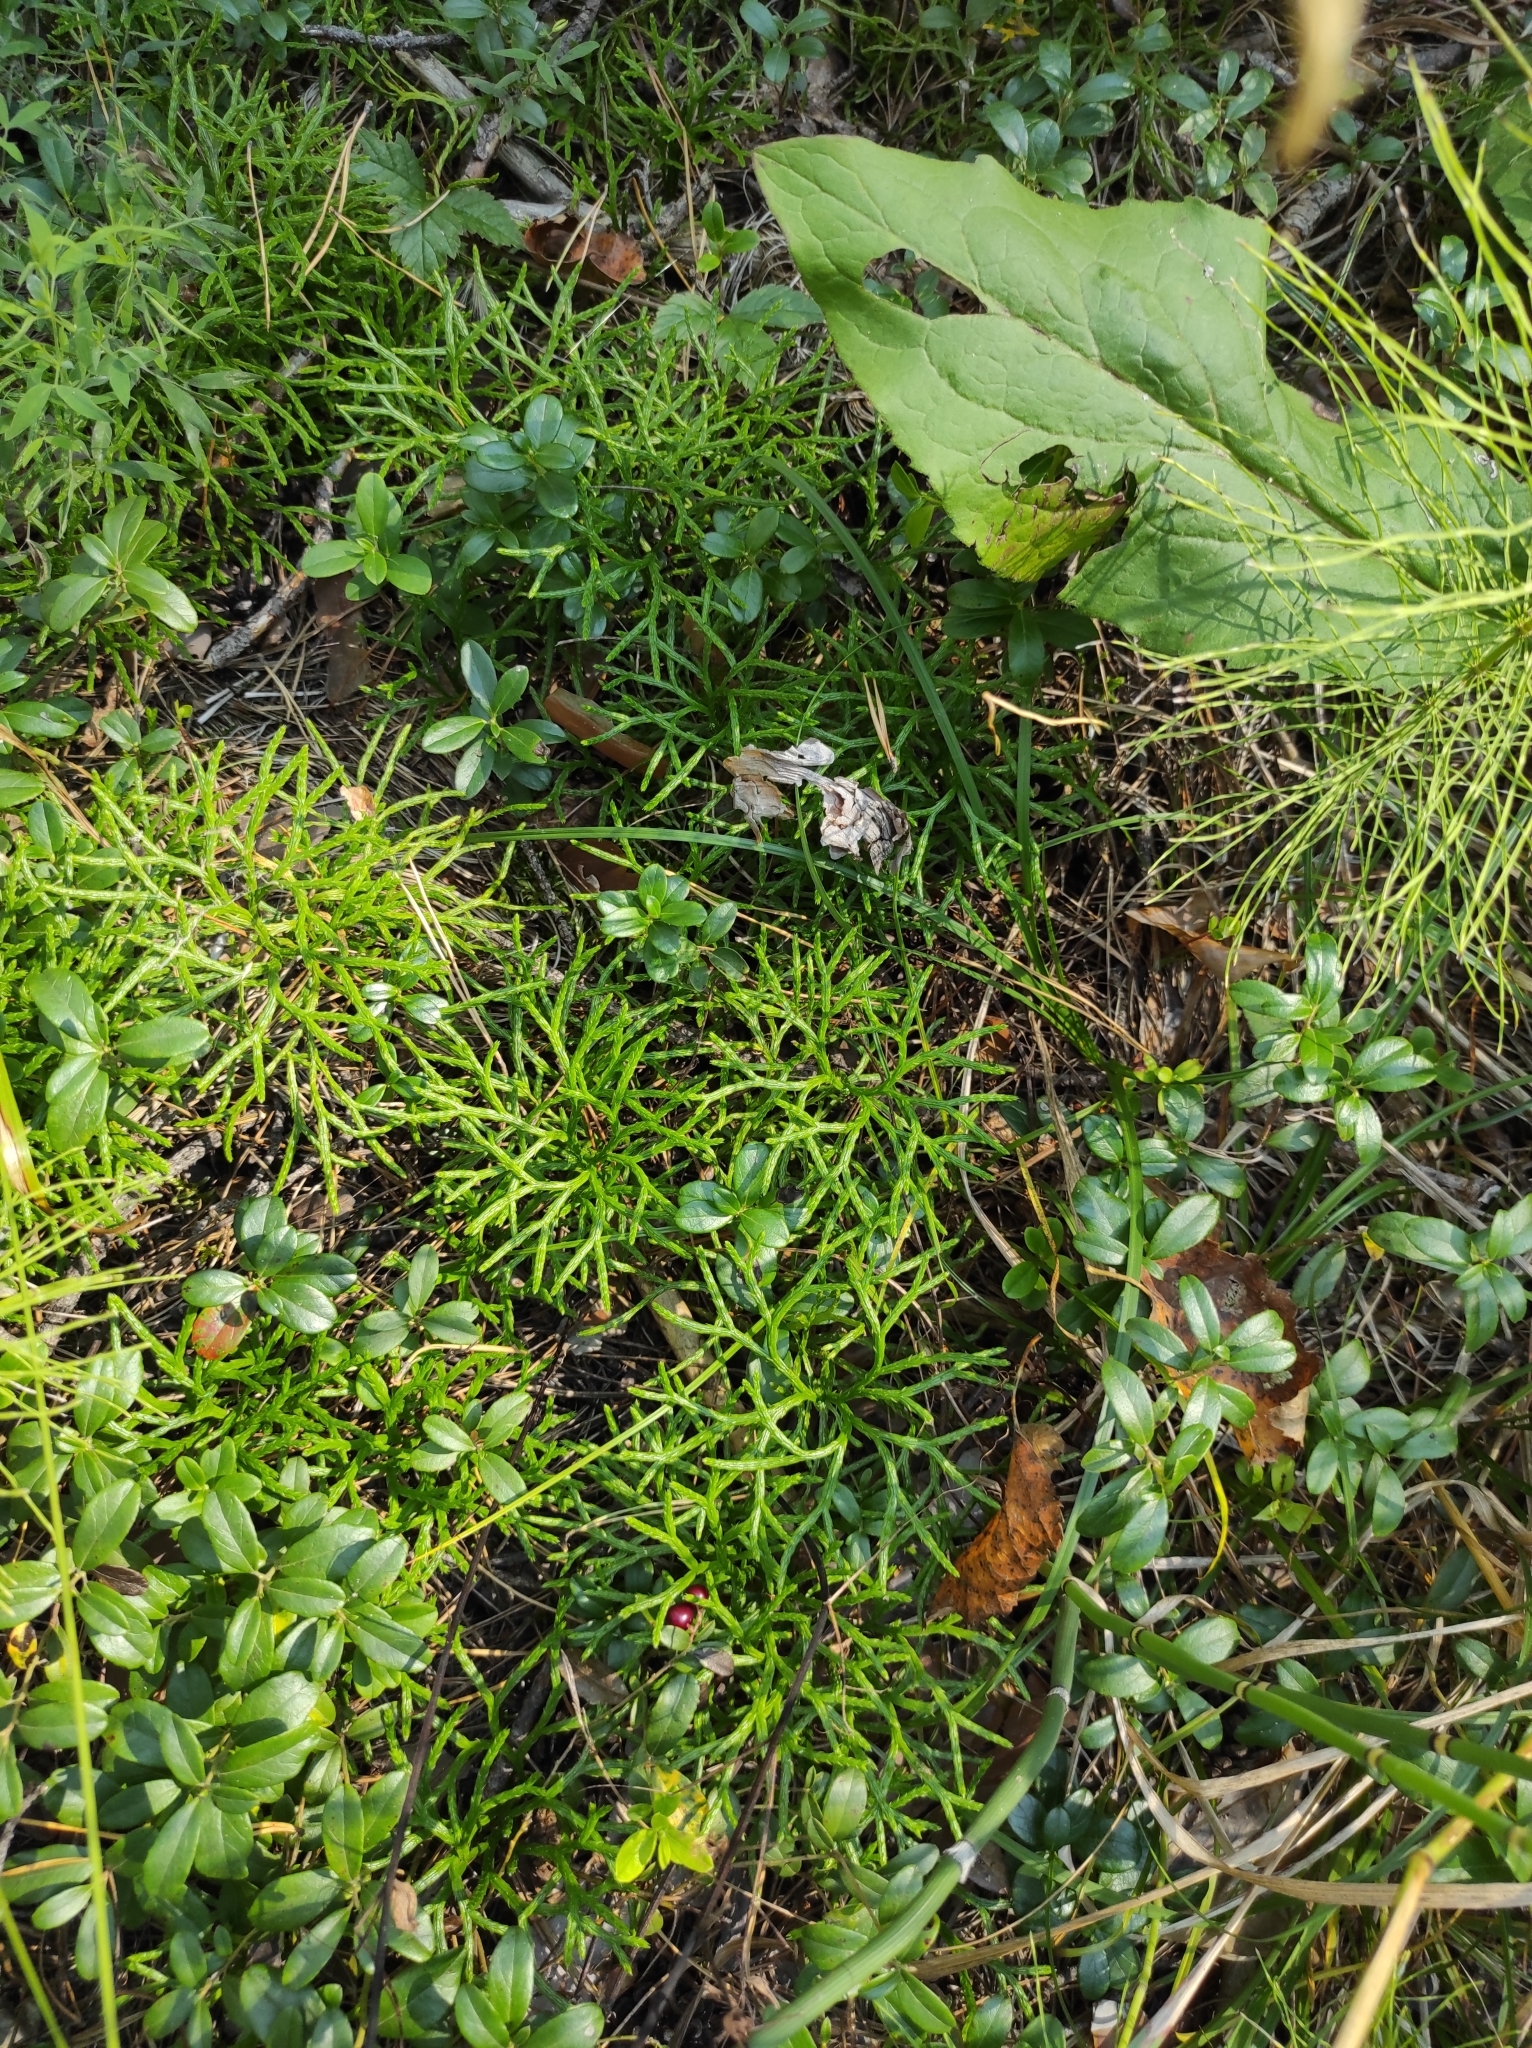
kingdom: Plantae
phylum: Tracheophyta
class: Magnoliopsida
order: Ericales
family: Ericaceae
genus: Vaccinium
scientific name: Vaccinium vitis-idaea
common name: Cowberry
